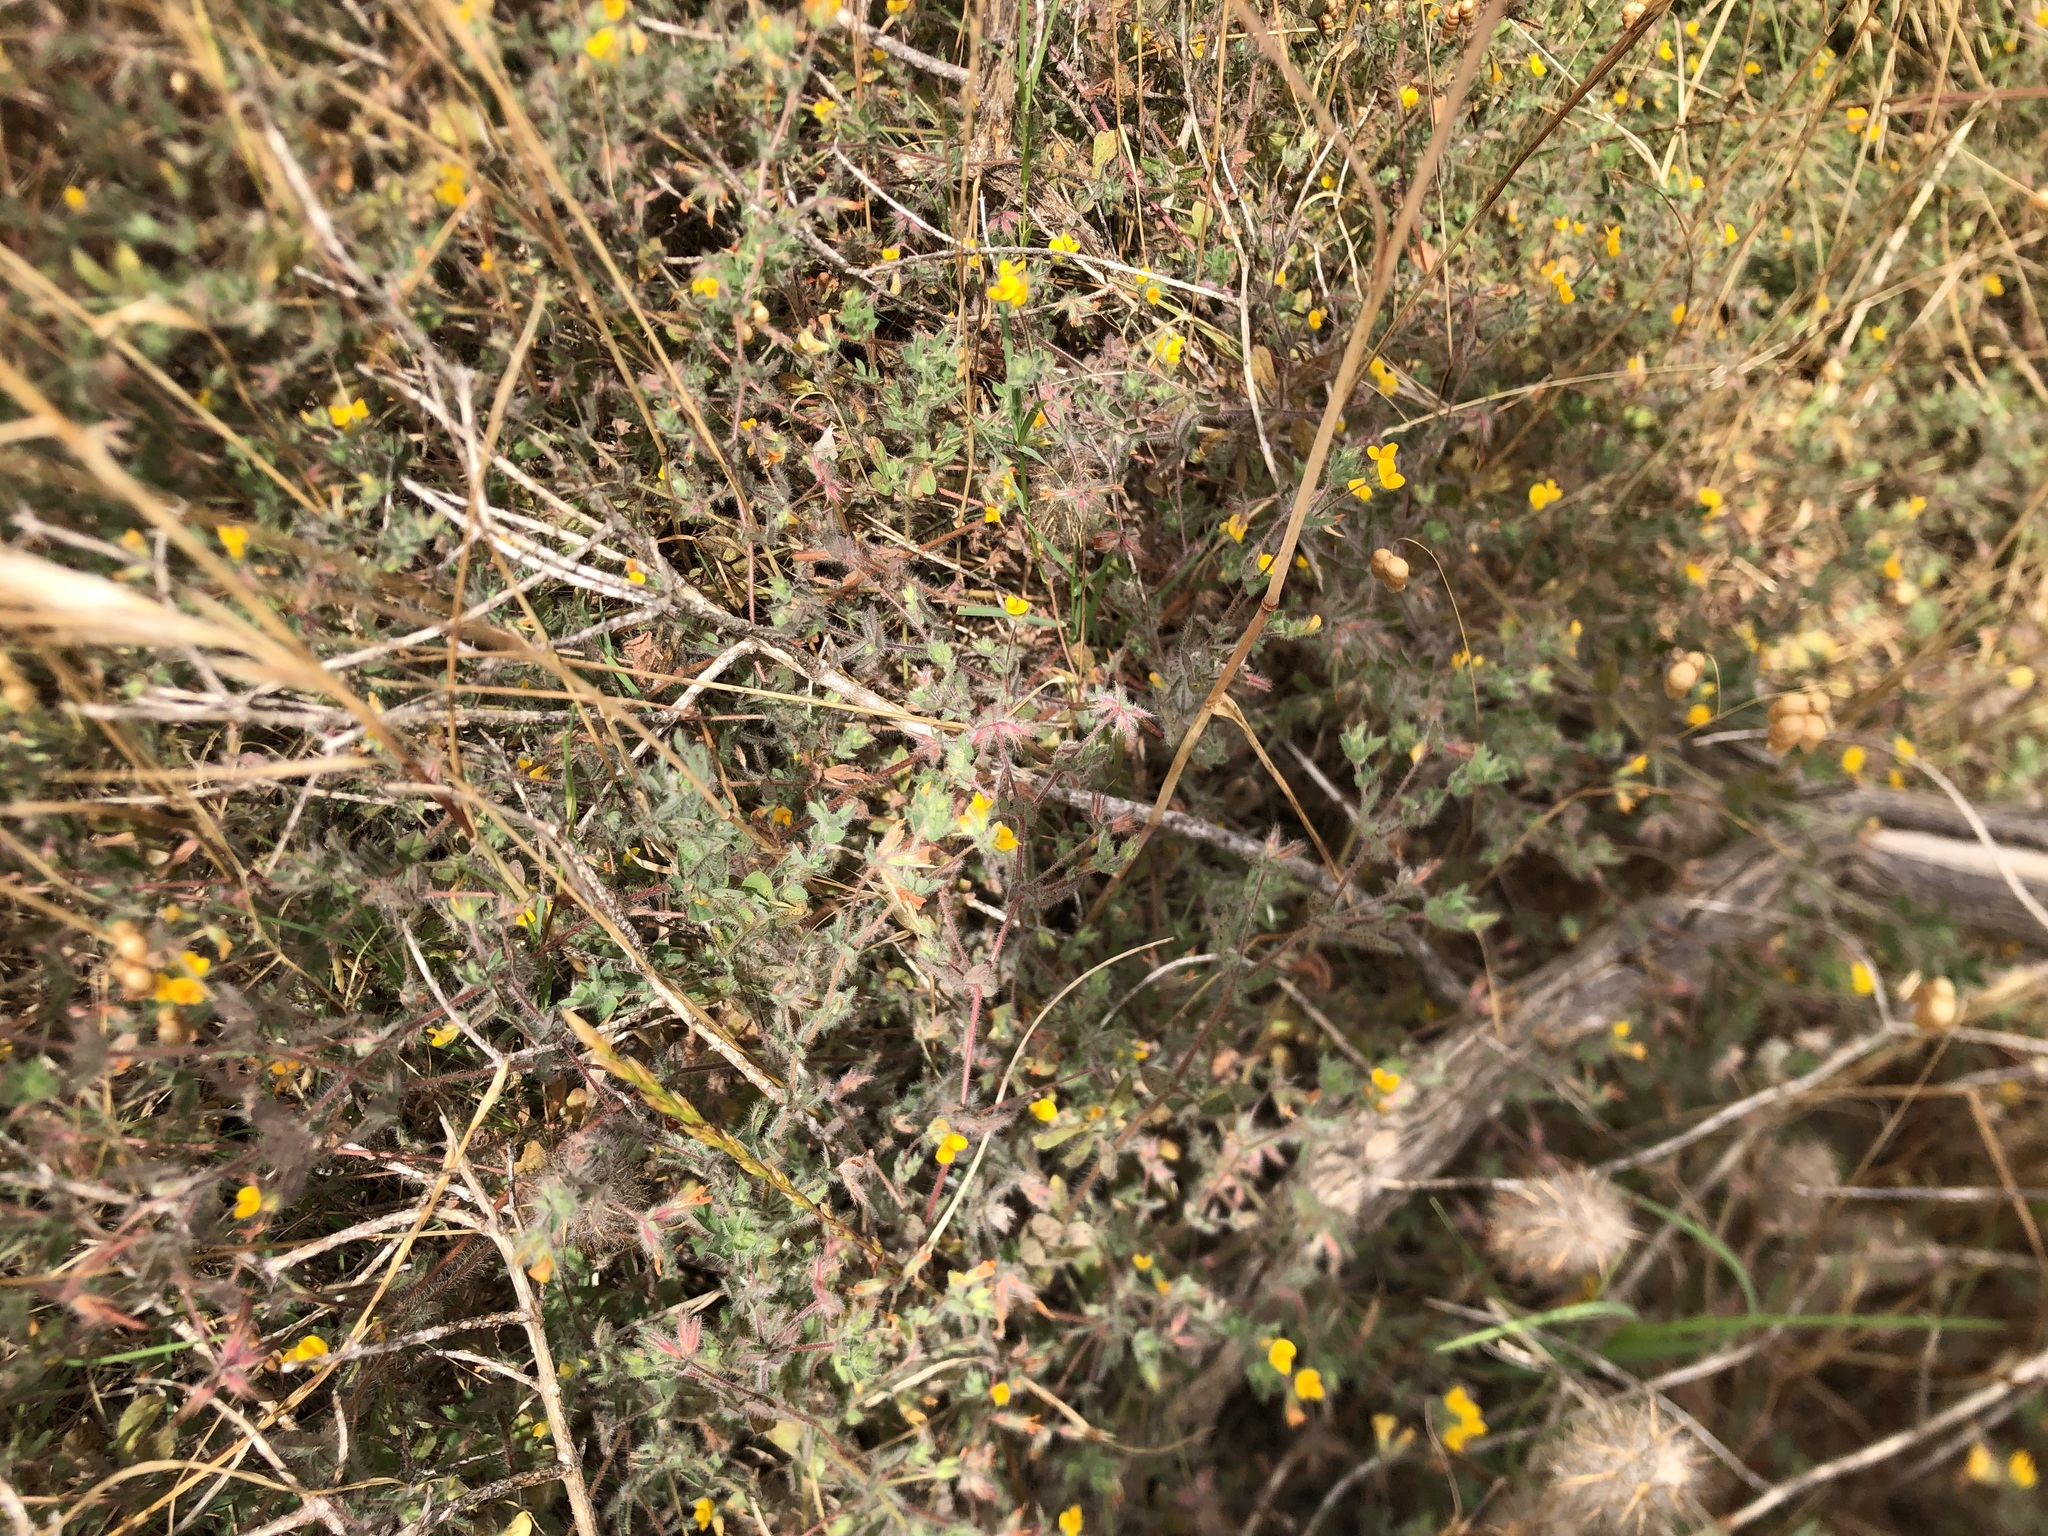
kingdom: Plantae
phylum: Tracheophyta
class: Magnoliopsida
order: Fabales
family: Fabaceae
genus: Lotus
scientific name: Lotus subbiflorus
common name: Hairy bird's-foot trefoil
